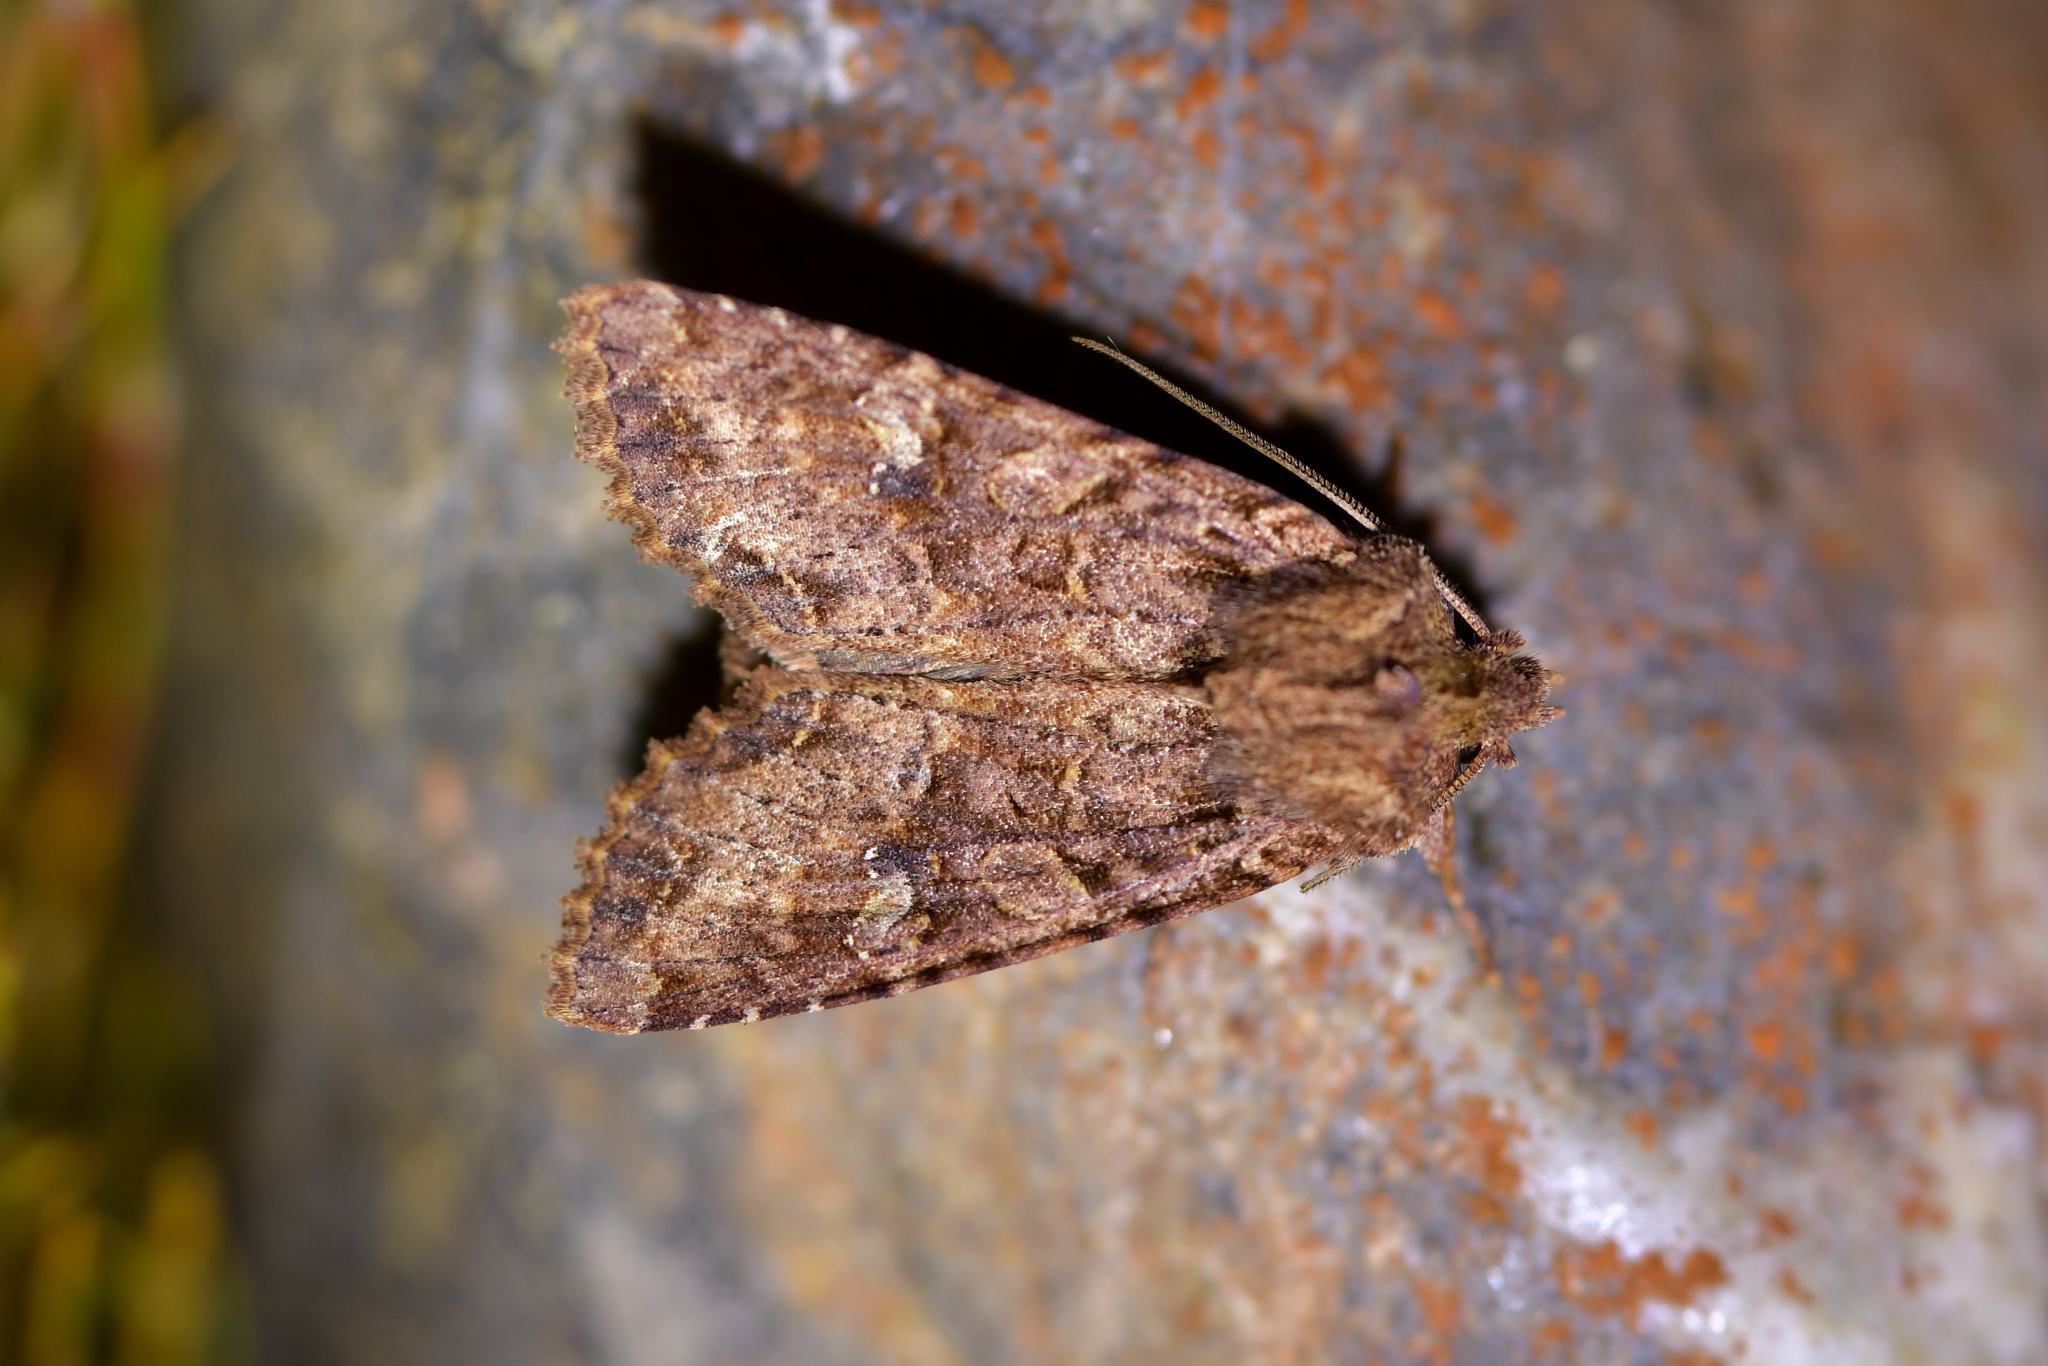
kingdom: Animalia
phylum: Arthropoda
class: Insecta
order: Lepidoptera
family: Noctuidae
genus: Meterana
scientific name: Meterana
